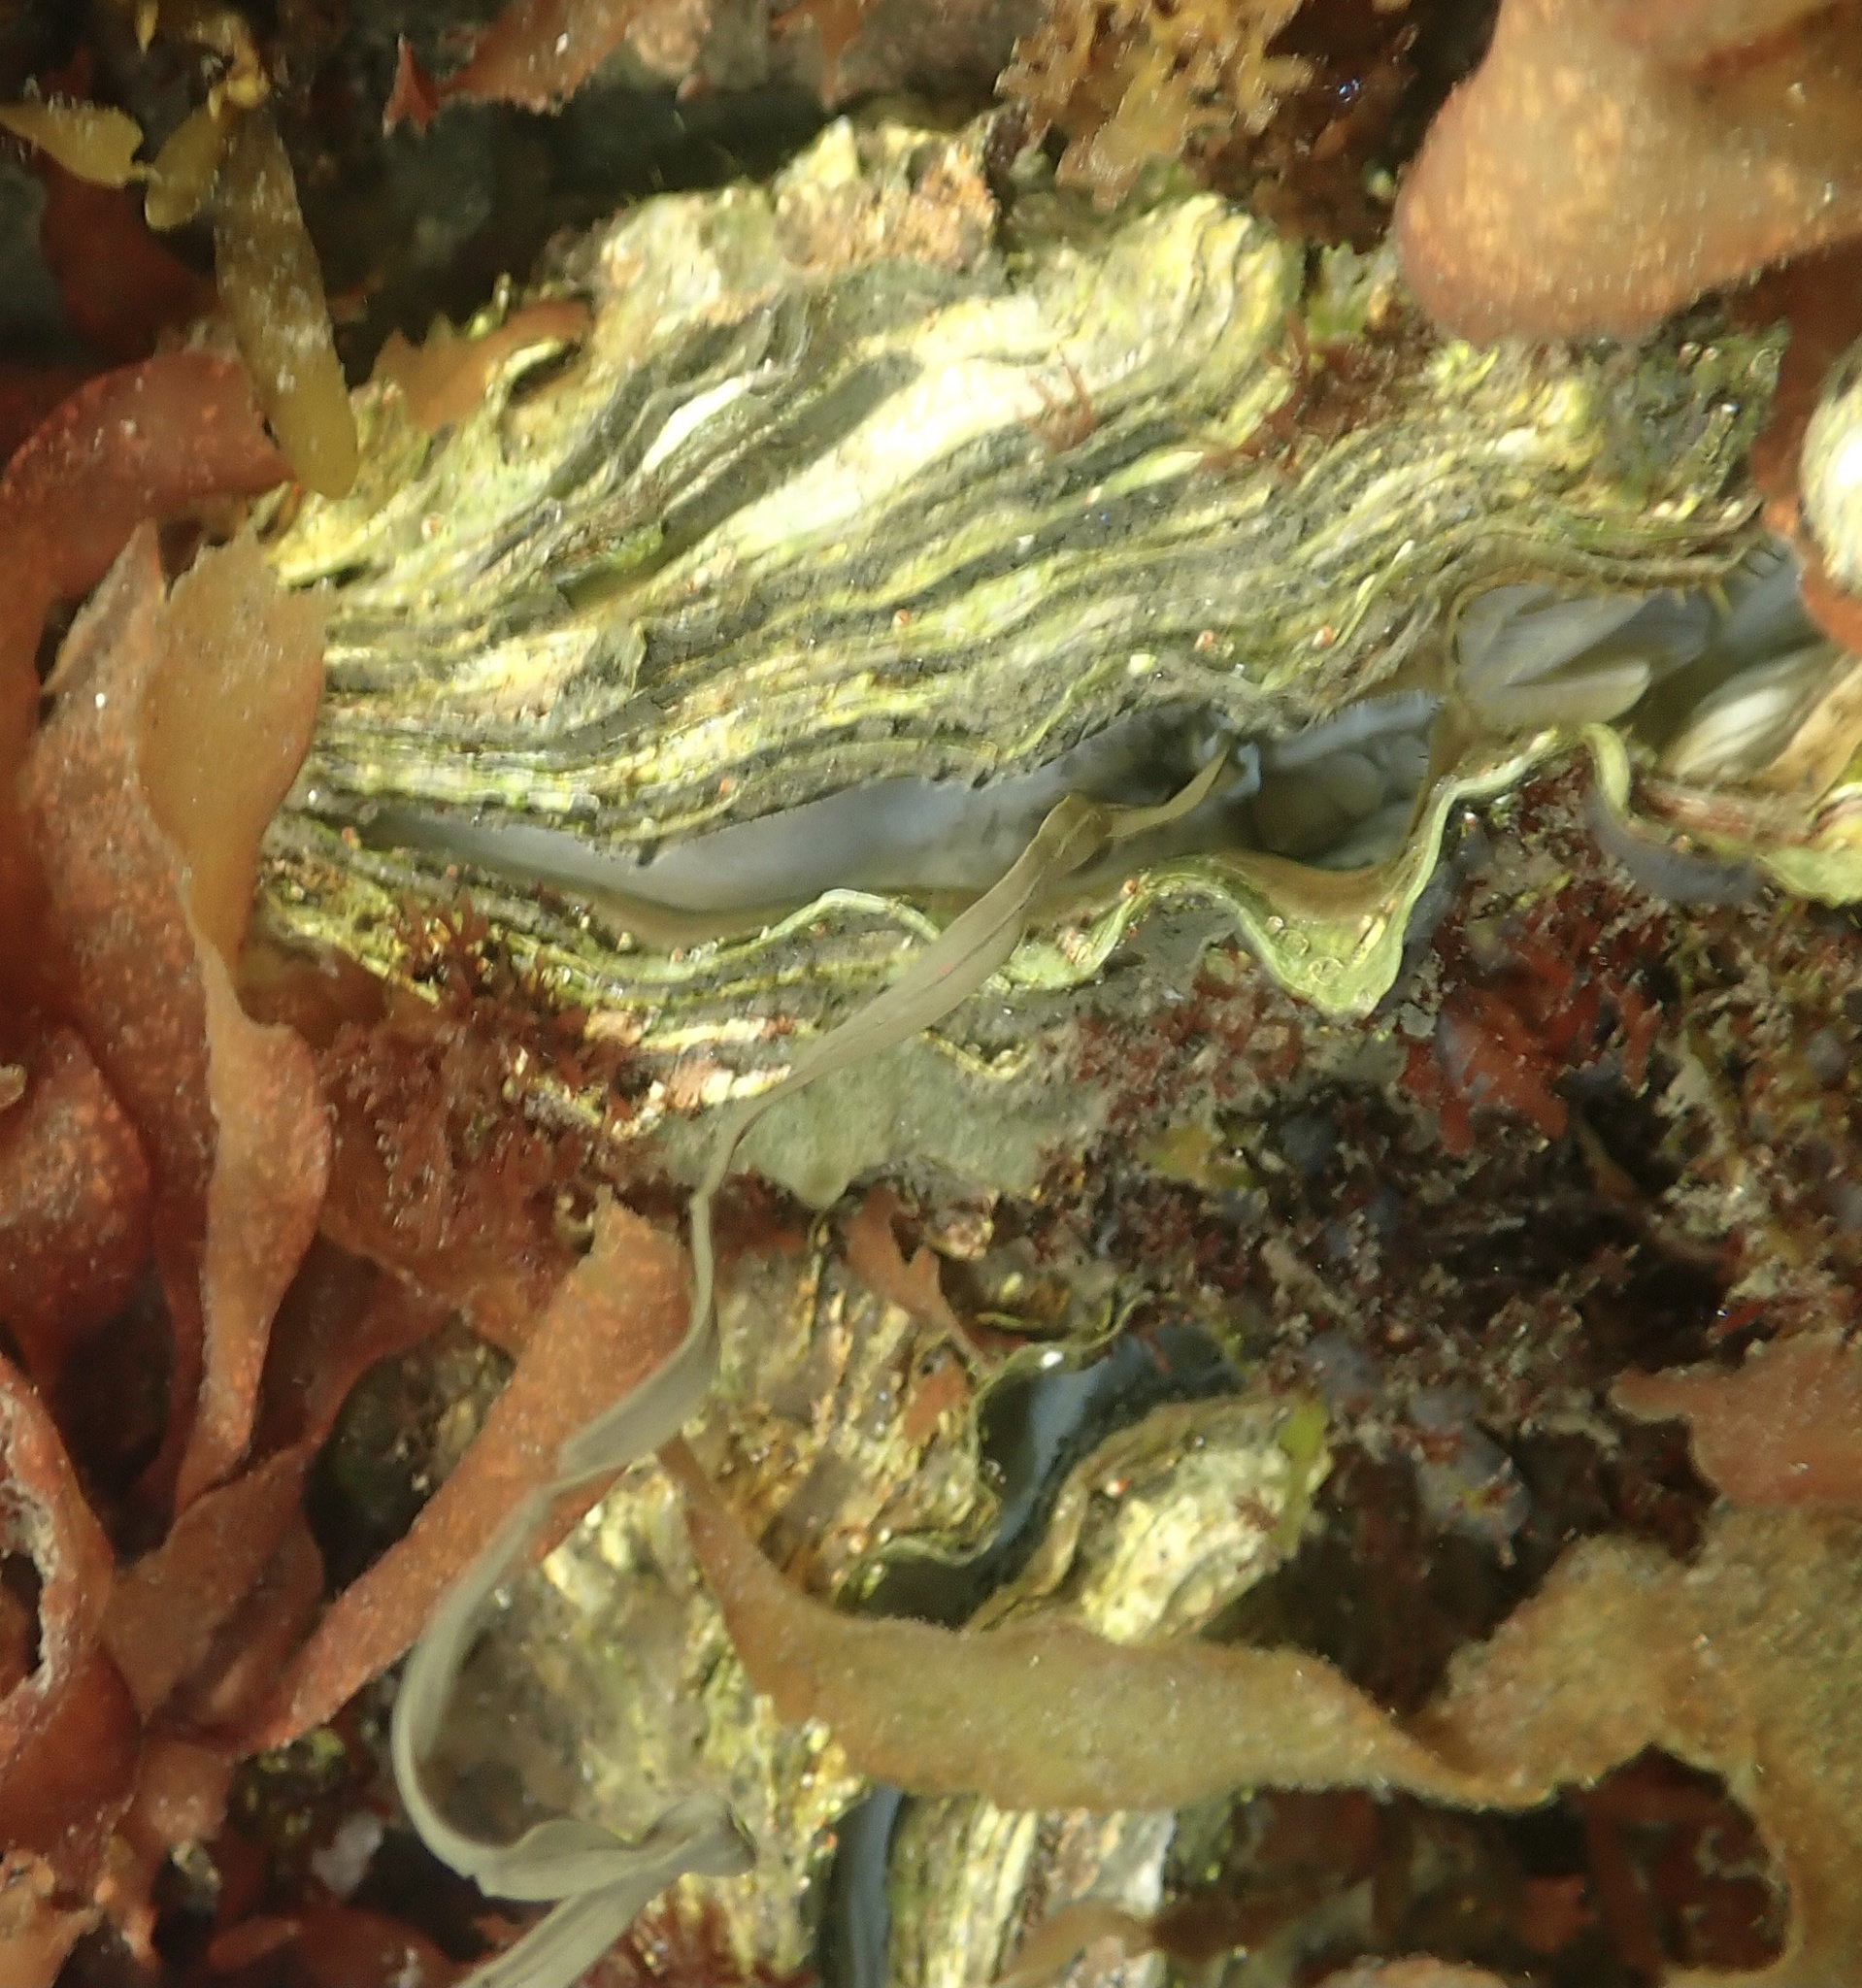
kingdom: Animalia
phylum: Mollusca
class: Bivalvia
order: Ostreida
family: Ostreidae
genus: Magallana
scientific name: Magallana gigas
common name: Pacific oyster
